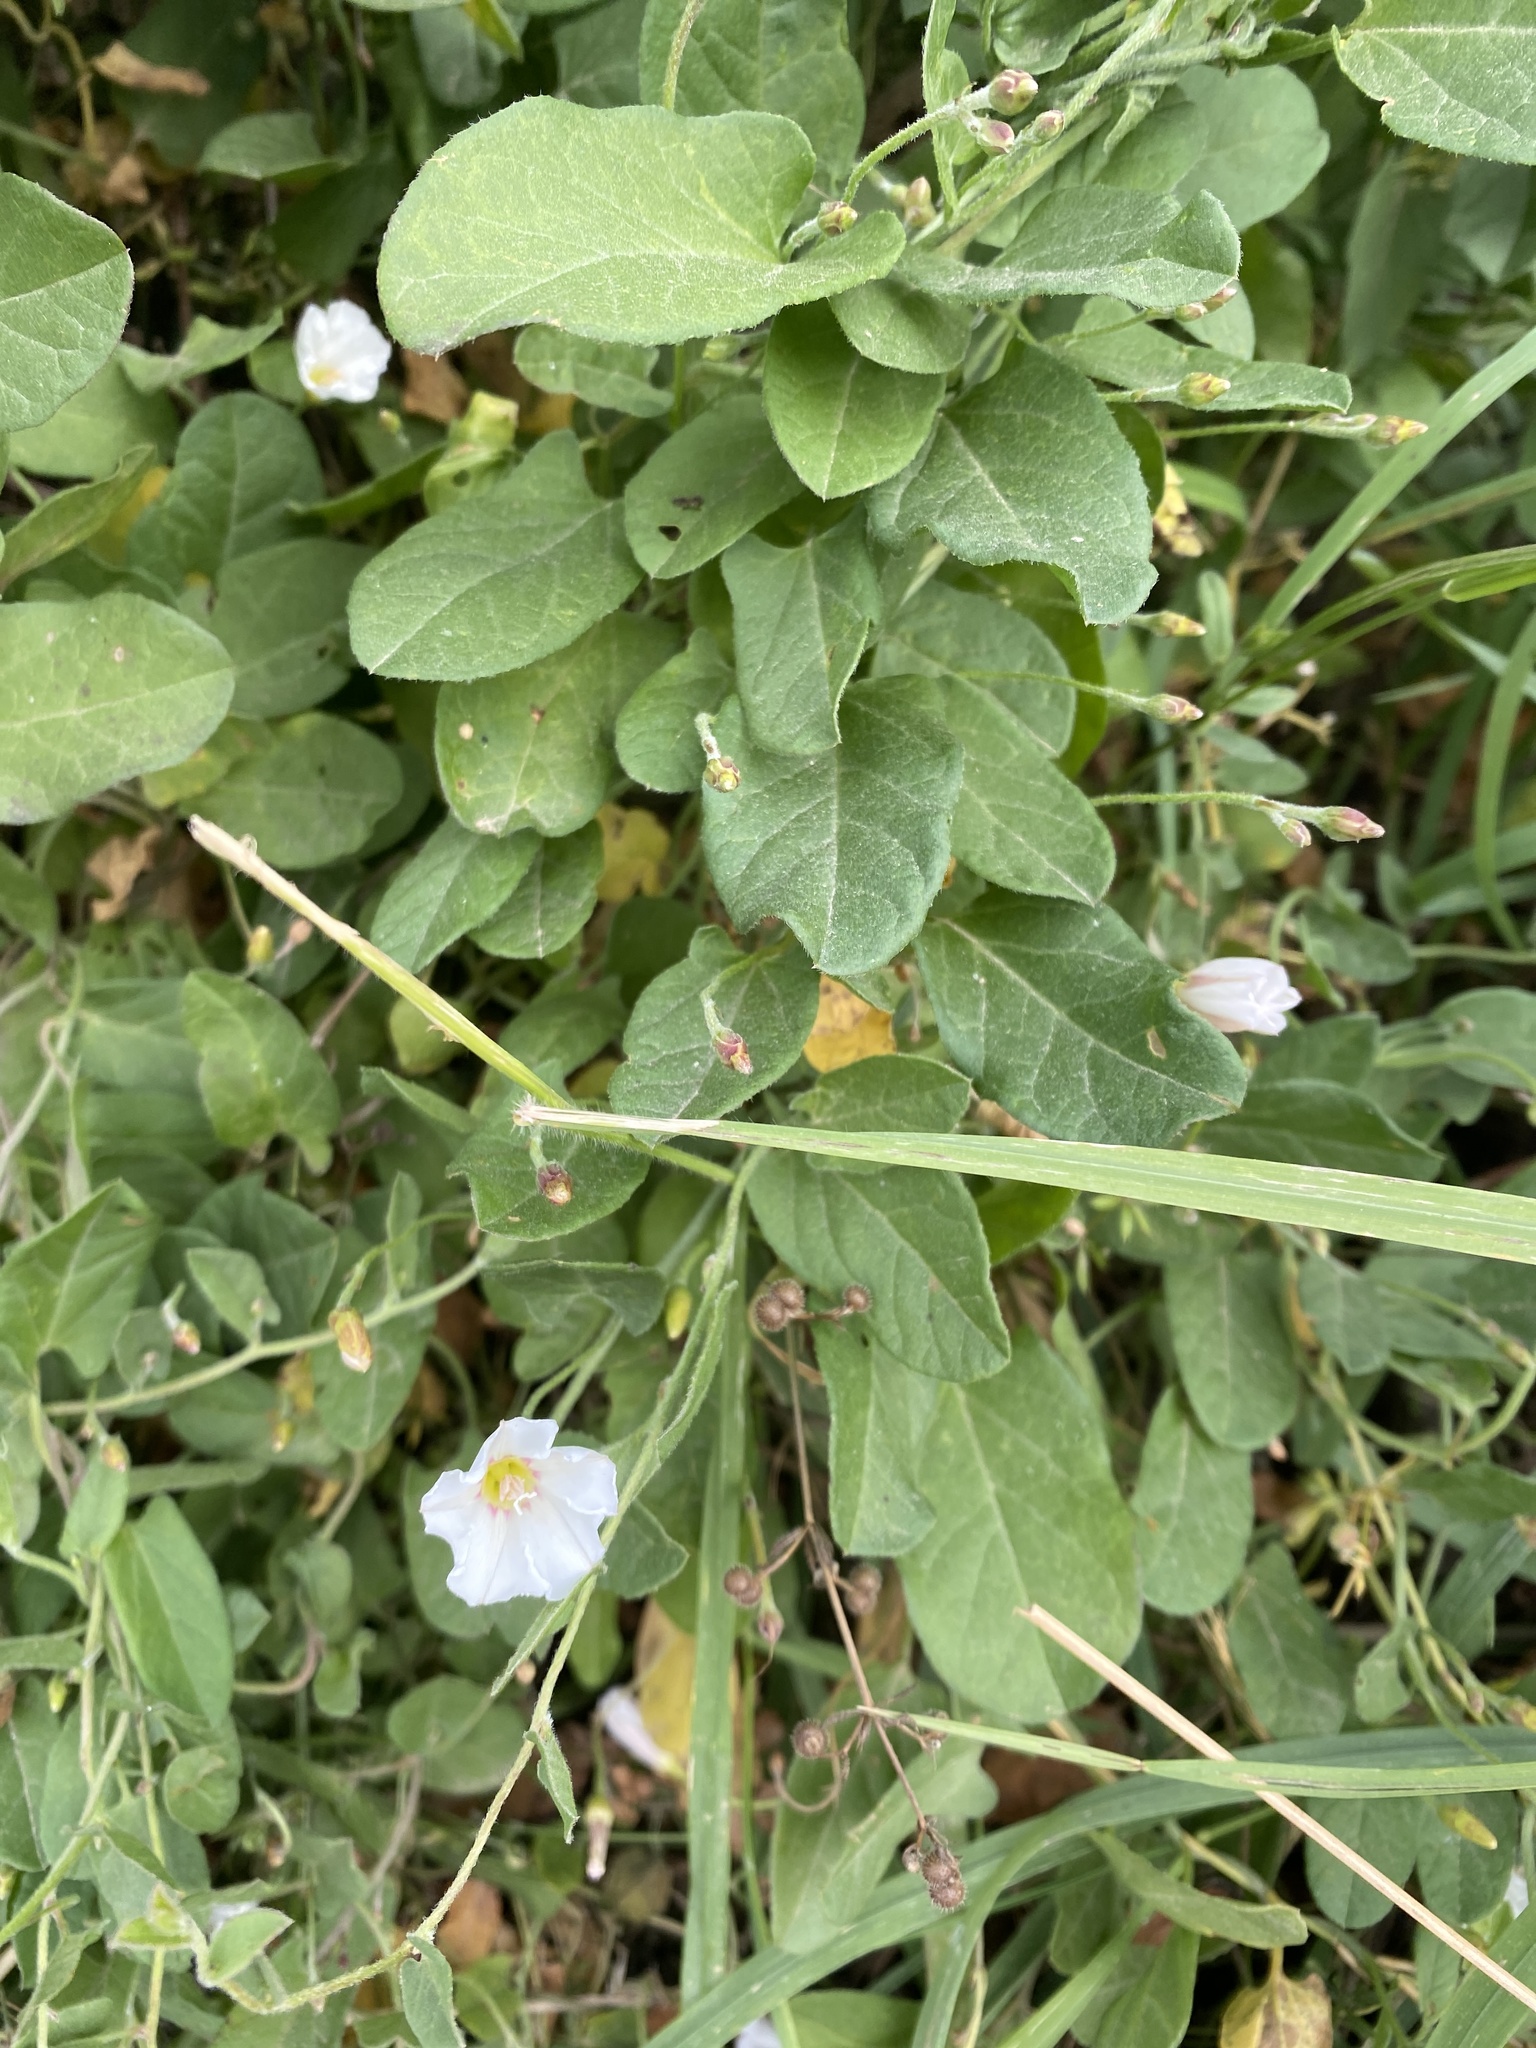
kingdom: Plantae
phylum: Tracheophyta
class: Magnoliopsida
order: Solanales
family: Convolvulaceae
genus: Convolvulus
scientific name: Convolvulus arvensis
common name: Field bindweed
